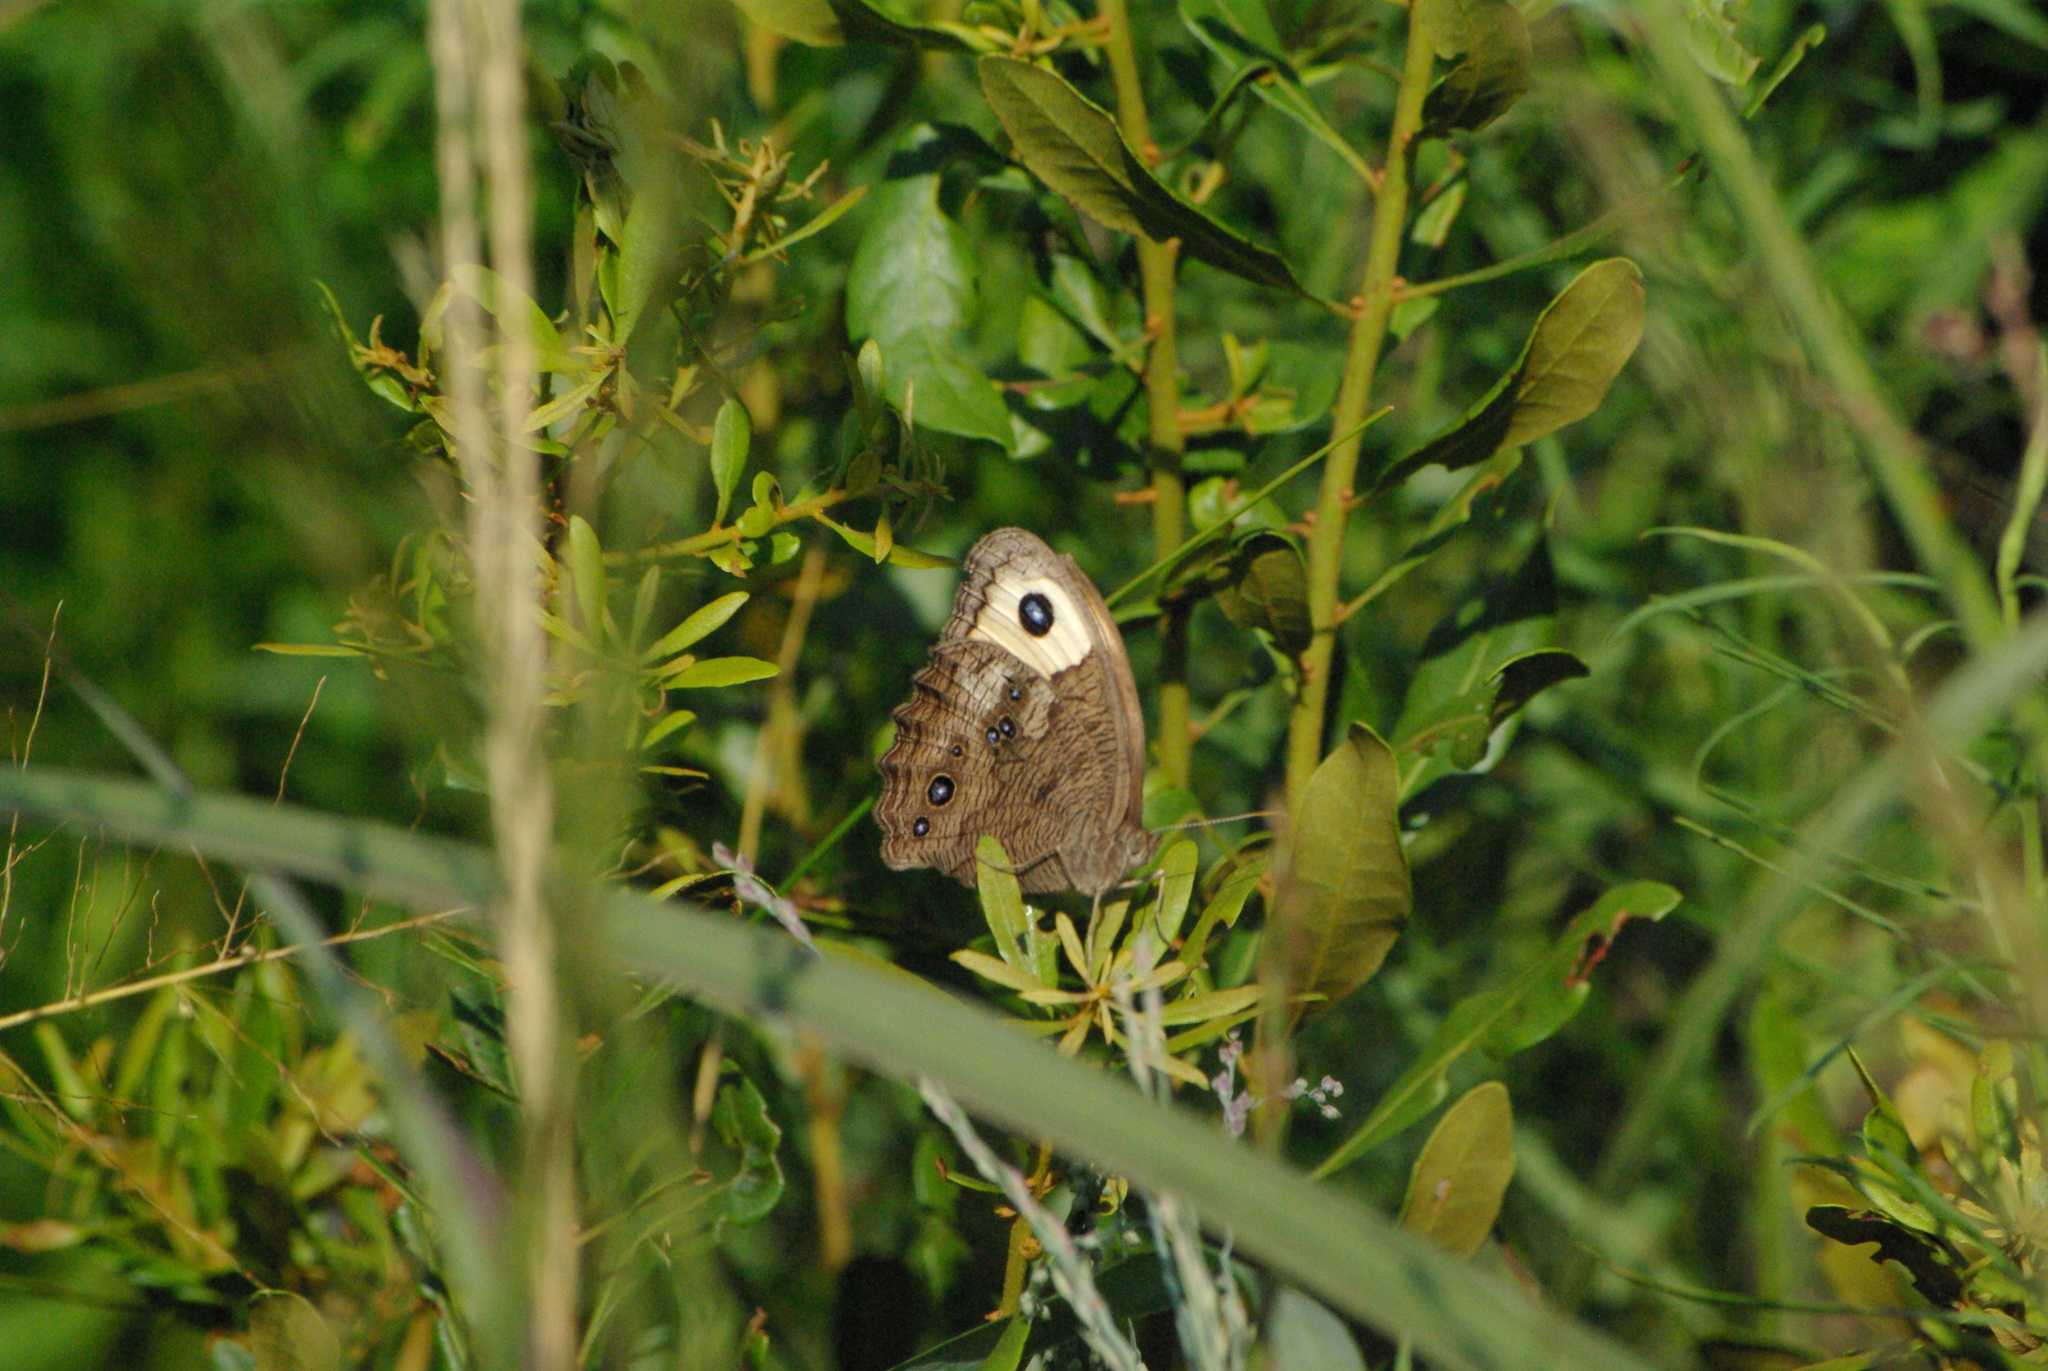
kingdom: Animalia
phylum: Arthropoda
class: Insecta
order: Lepidoptera
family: Nymphalidae
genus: Cercyonis
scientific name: Cercyonis pegala
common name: Common wood-nymph
